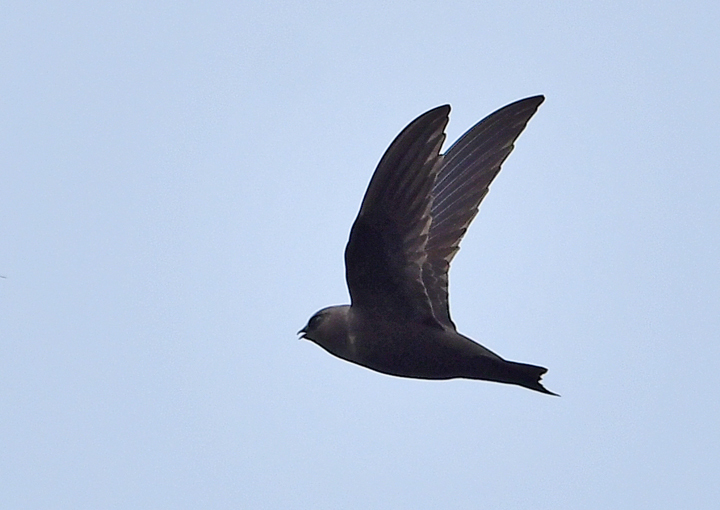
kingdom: Animalia
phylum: Chordata
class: Aves
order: Apodiformes
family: Apodidae
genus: Chaetura
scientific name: Chaetura vauxi
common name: Vaux's swift
